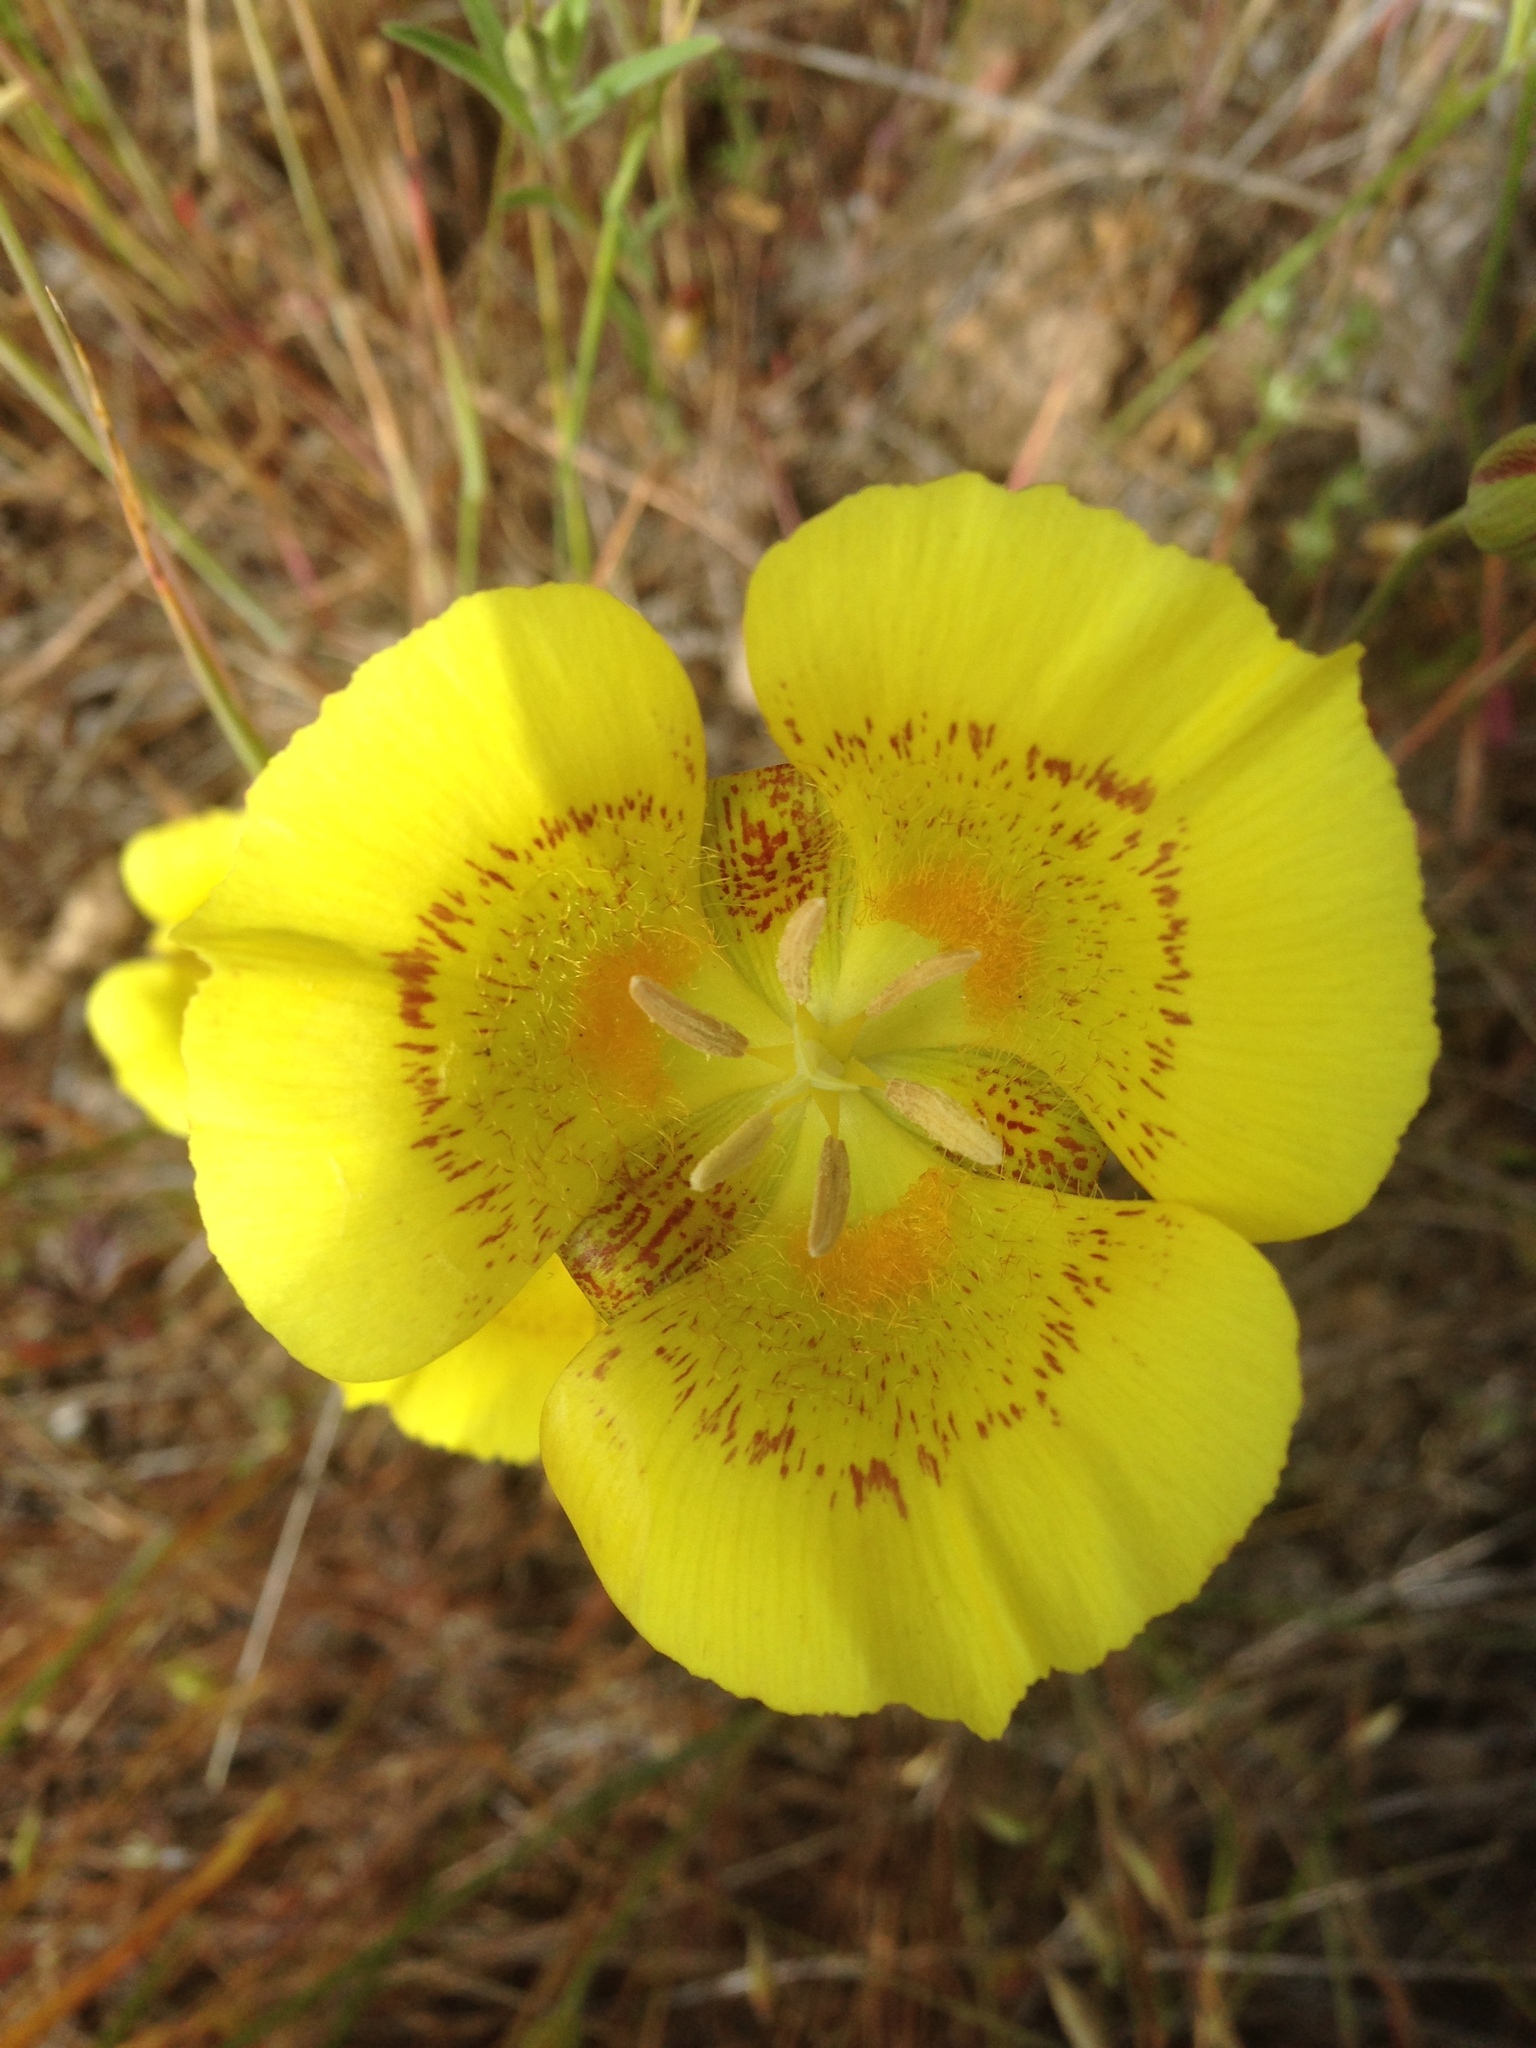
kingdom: Plantae
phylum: Tracheophyta
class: Liliopsida
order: Liliales
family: Liliaceae
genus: Calochortus
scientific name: Calochortus luteus
